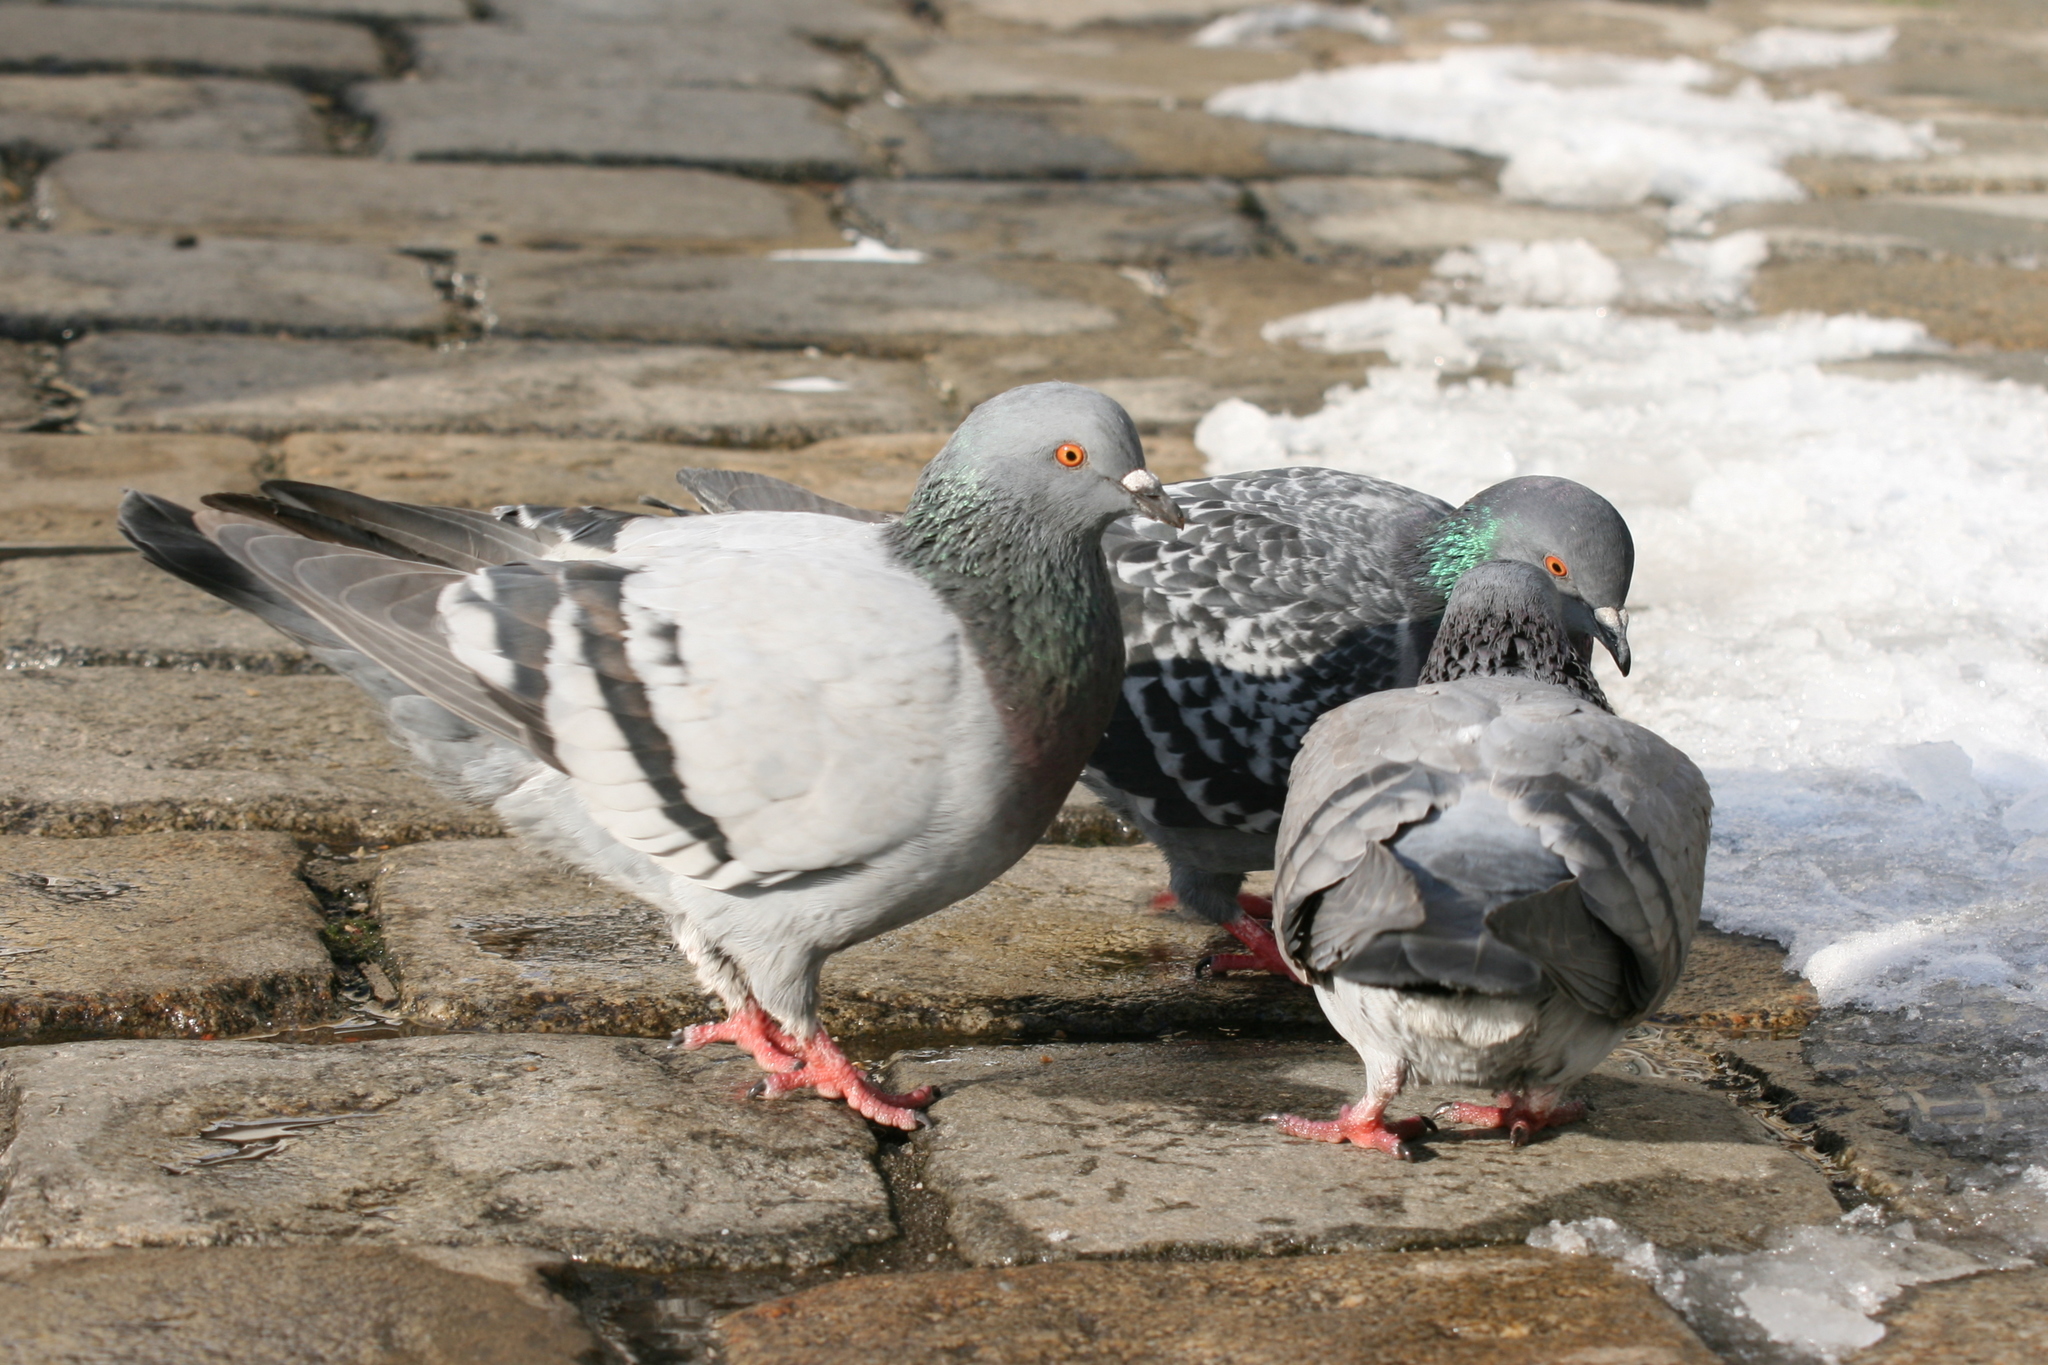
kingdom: Animalia
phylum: Chordata
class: Aves
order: Columbiformes
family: Columbidae
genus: Columba
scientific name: Columba livia
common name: Rock pigeon
